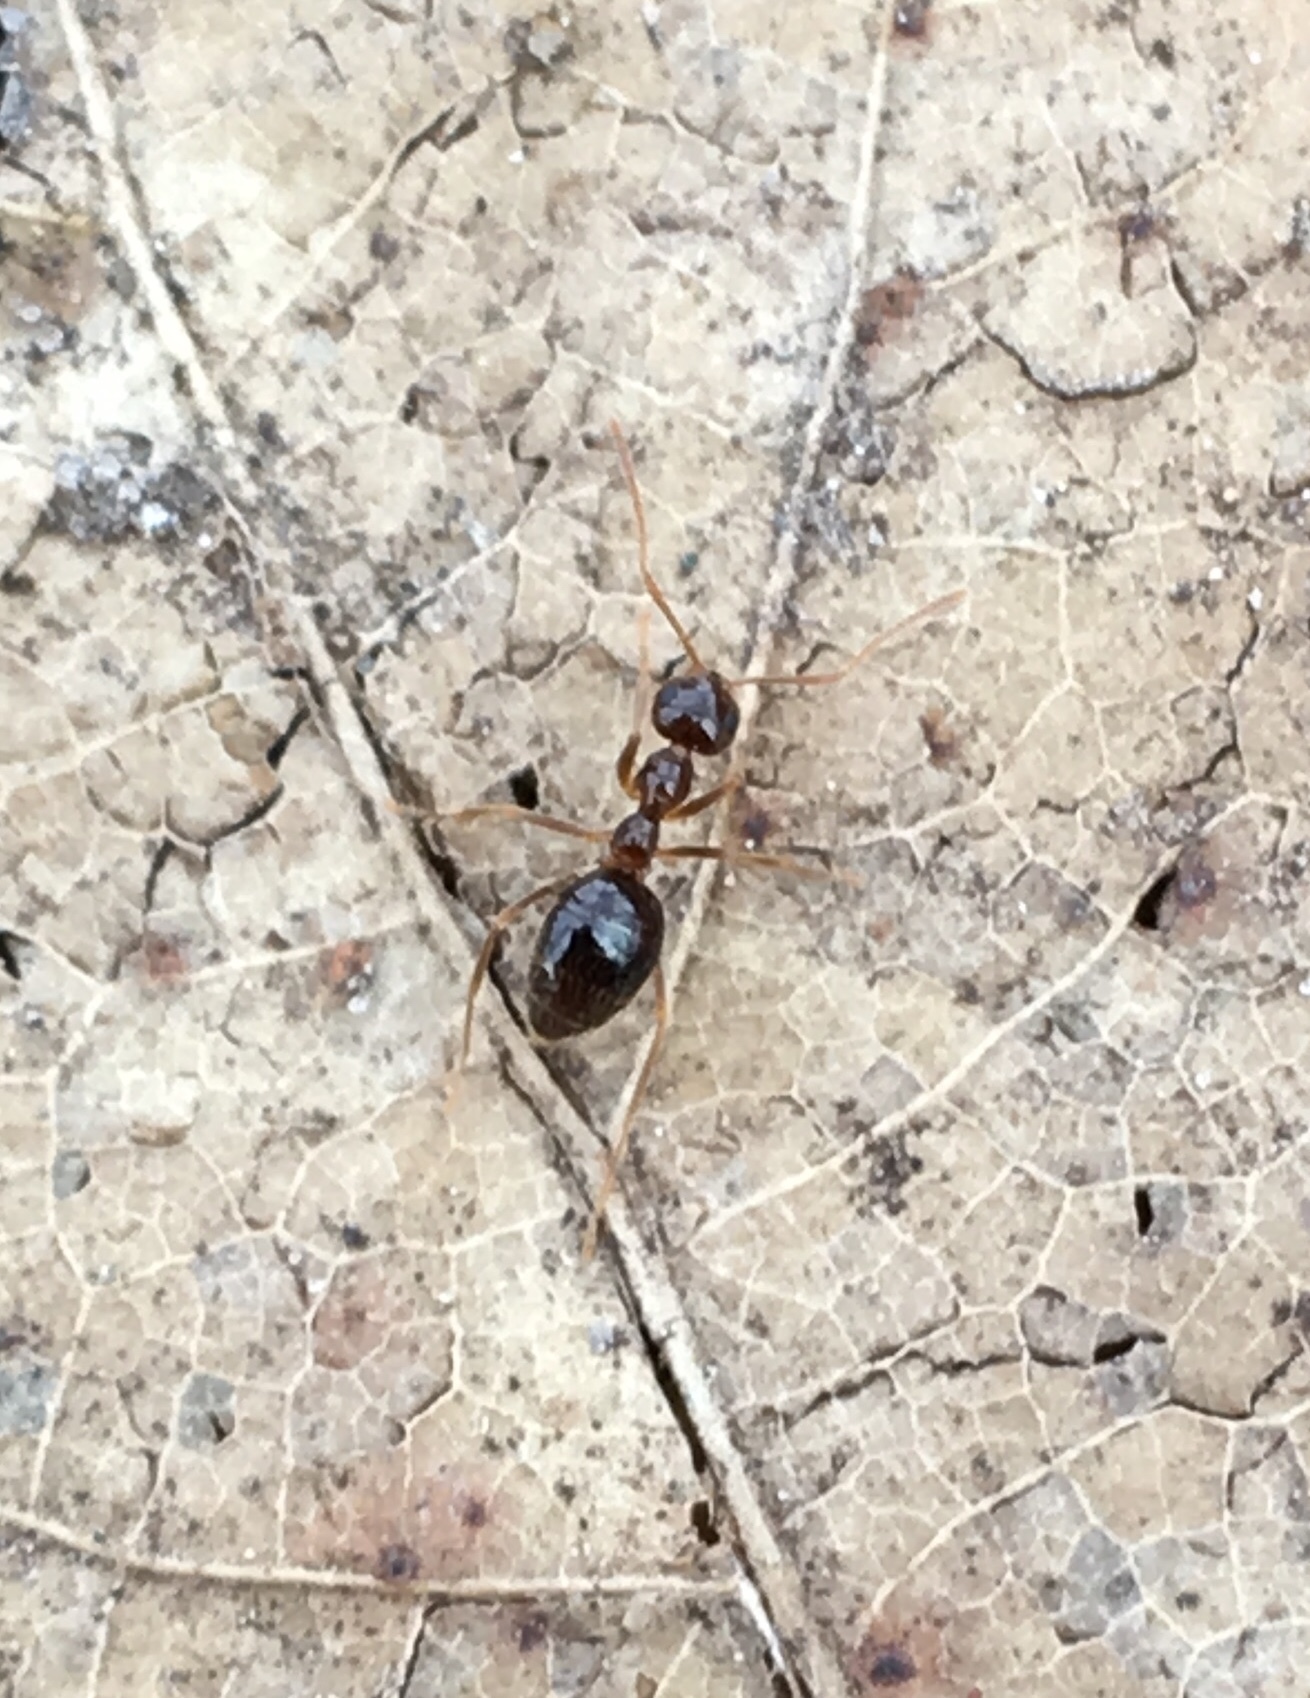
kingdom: Animalia
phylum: Arthropoda
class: Insecta
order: Hymenoptera
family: Formicidae
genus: Prenolepis
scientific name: Prenolepis imparis
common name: Small honey ant
